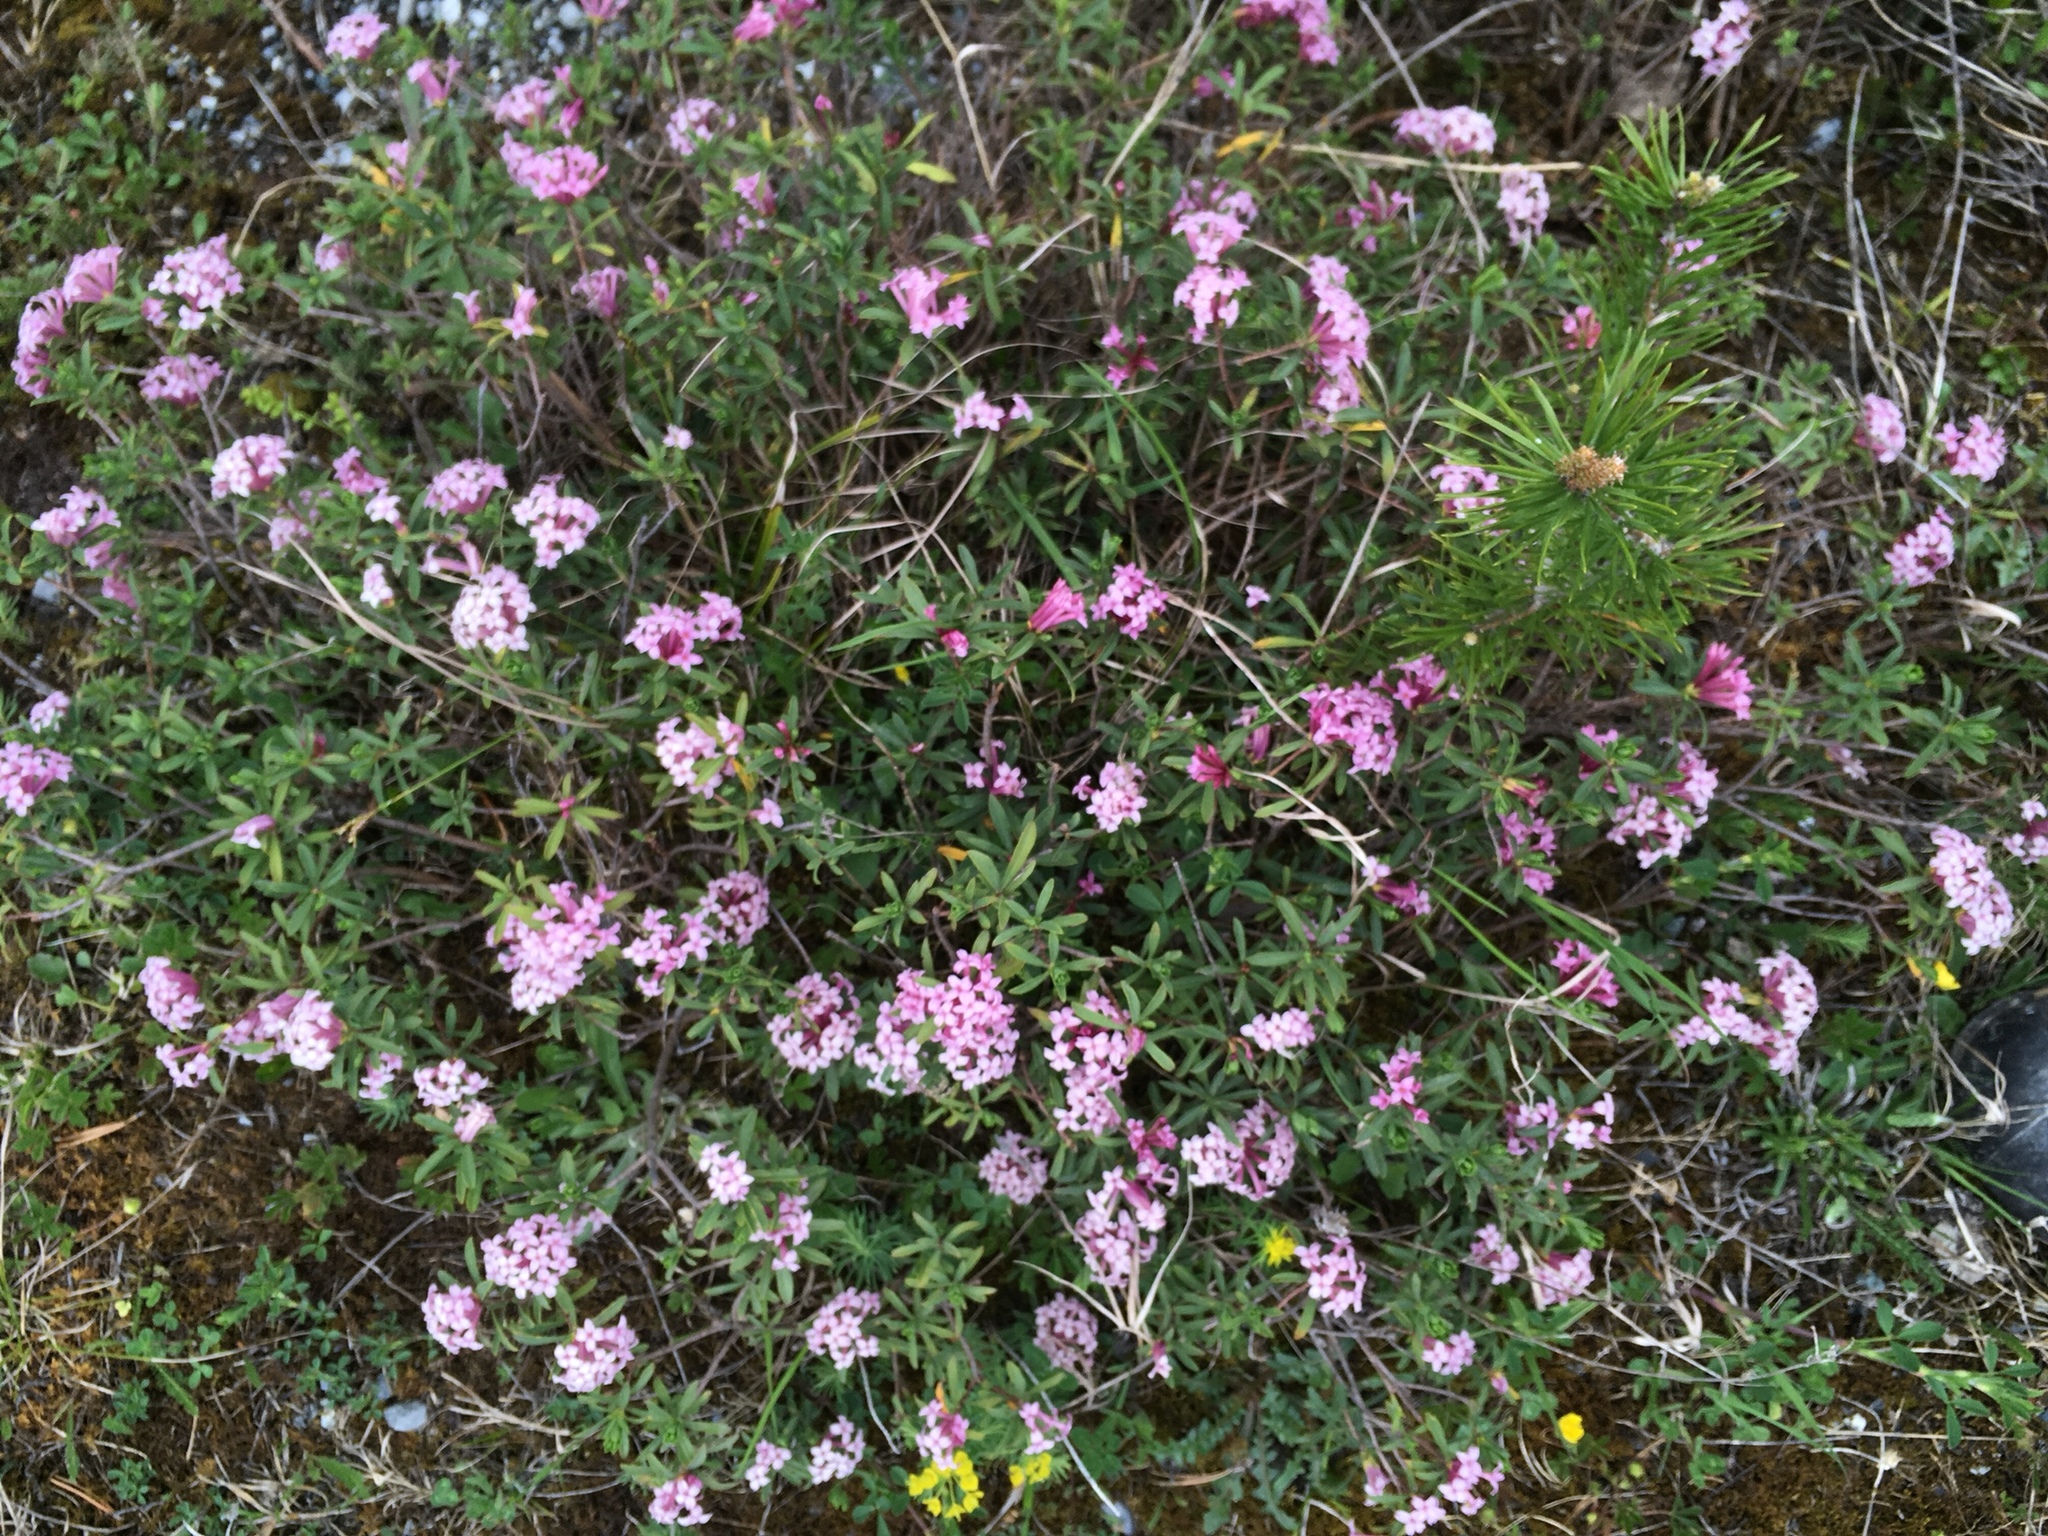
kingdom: Plantae
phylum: Tracheophyta
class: Magnoliopsida
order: Malvales
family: Thymelaeaceae
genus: Daphne
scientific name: Daphne striata
